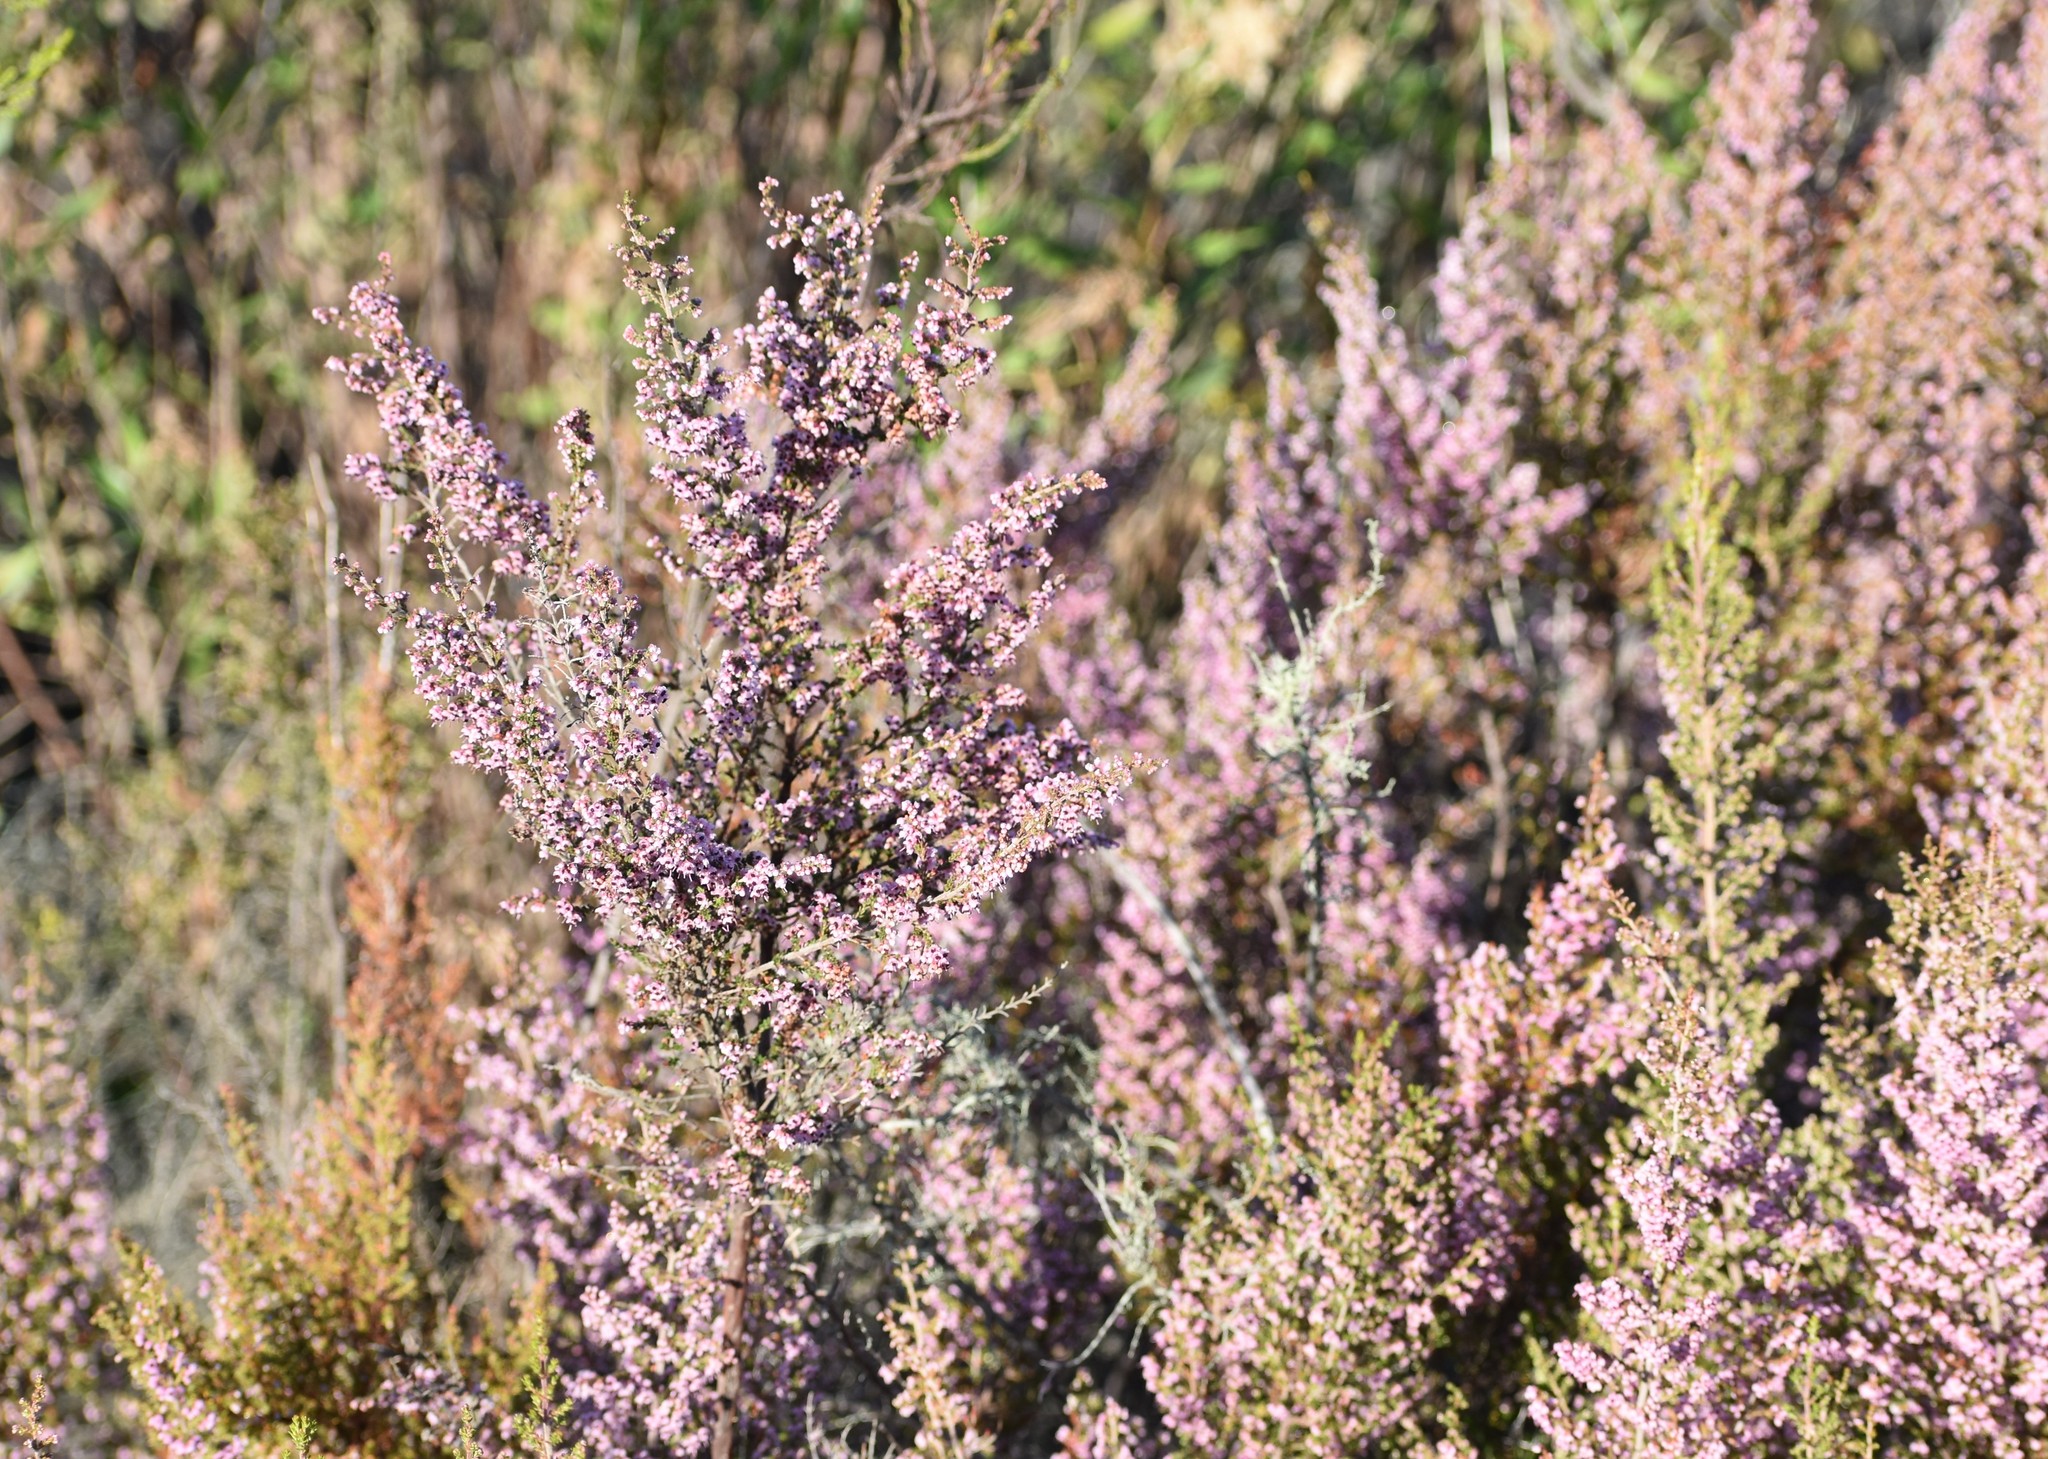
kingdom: Plantae
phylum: Tracheophyta
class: Magnoliopsida
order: Ericales
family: Ericaceae
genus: Erica
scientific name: Erica sparsa
